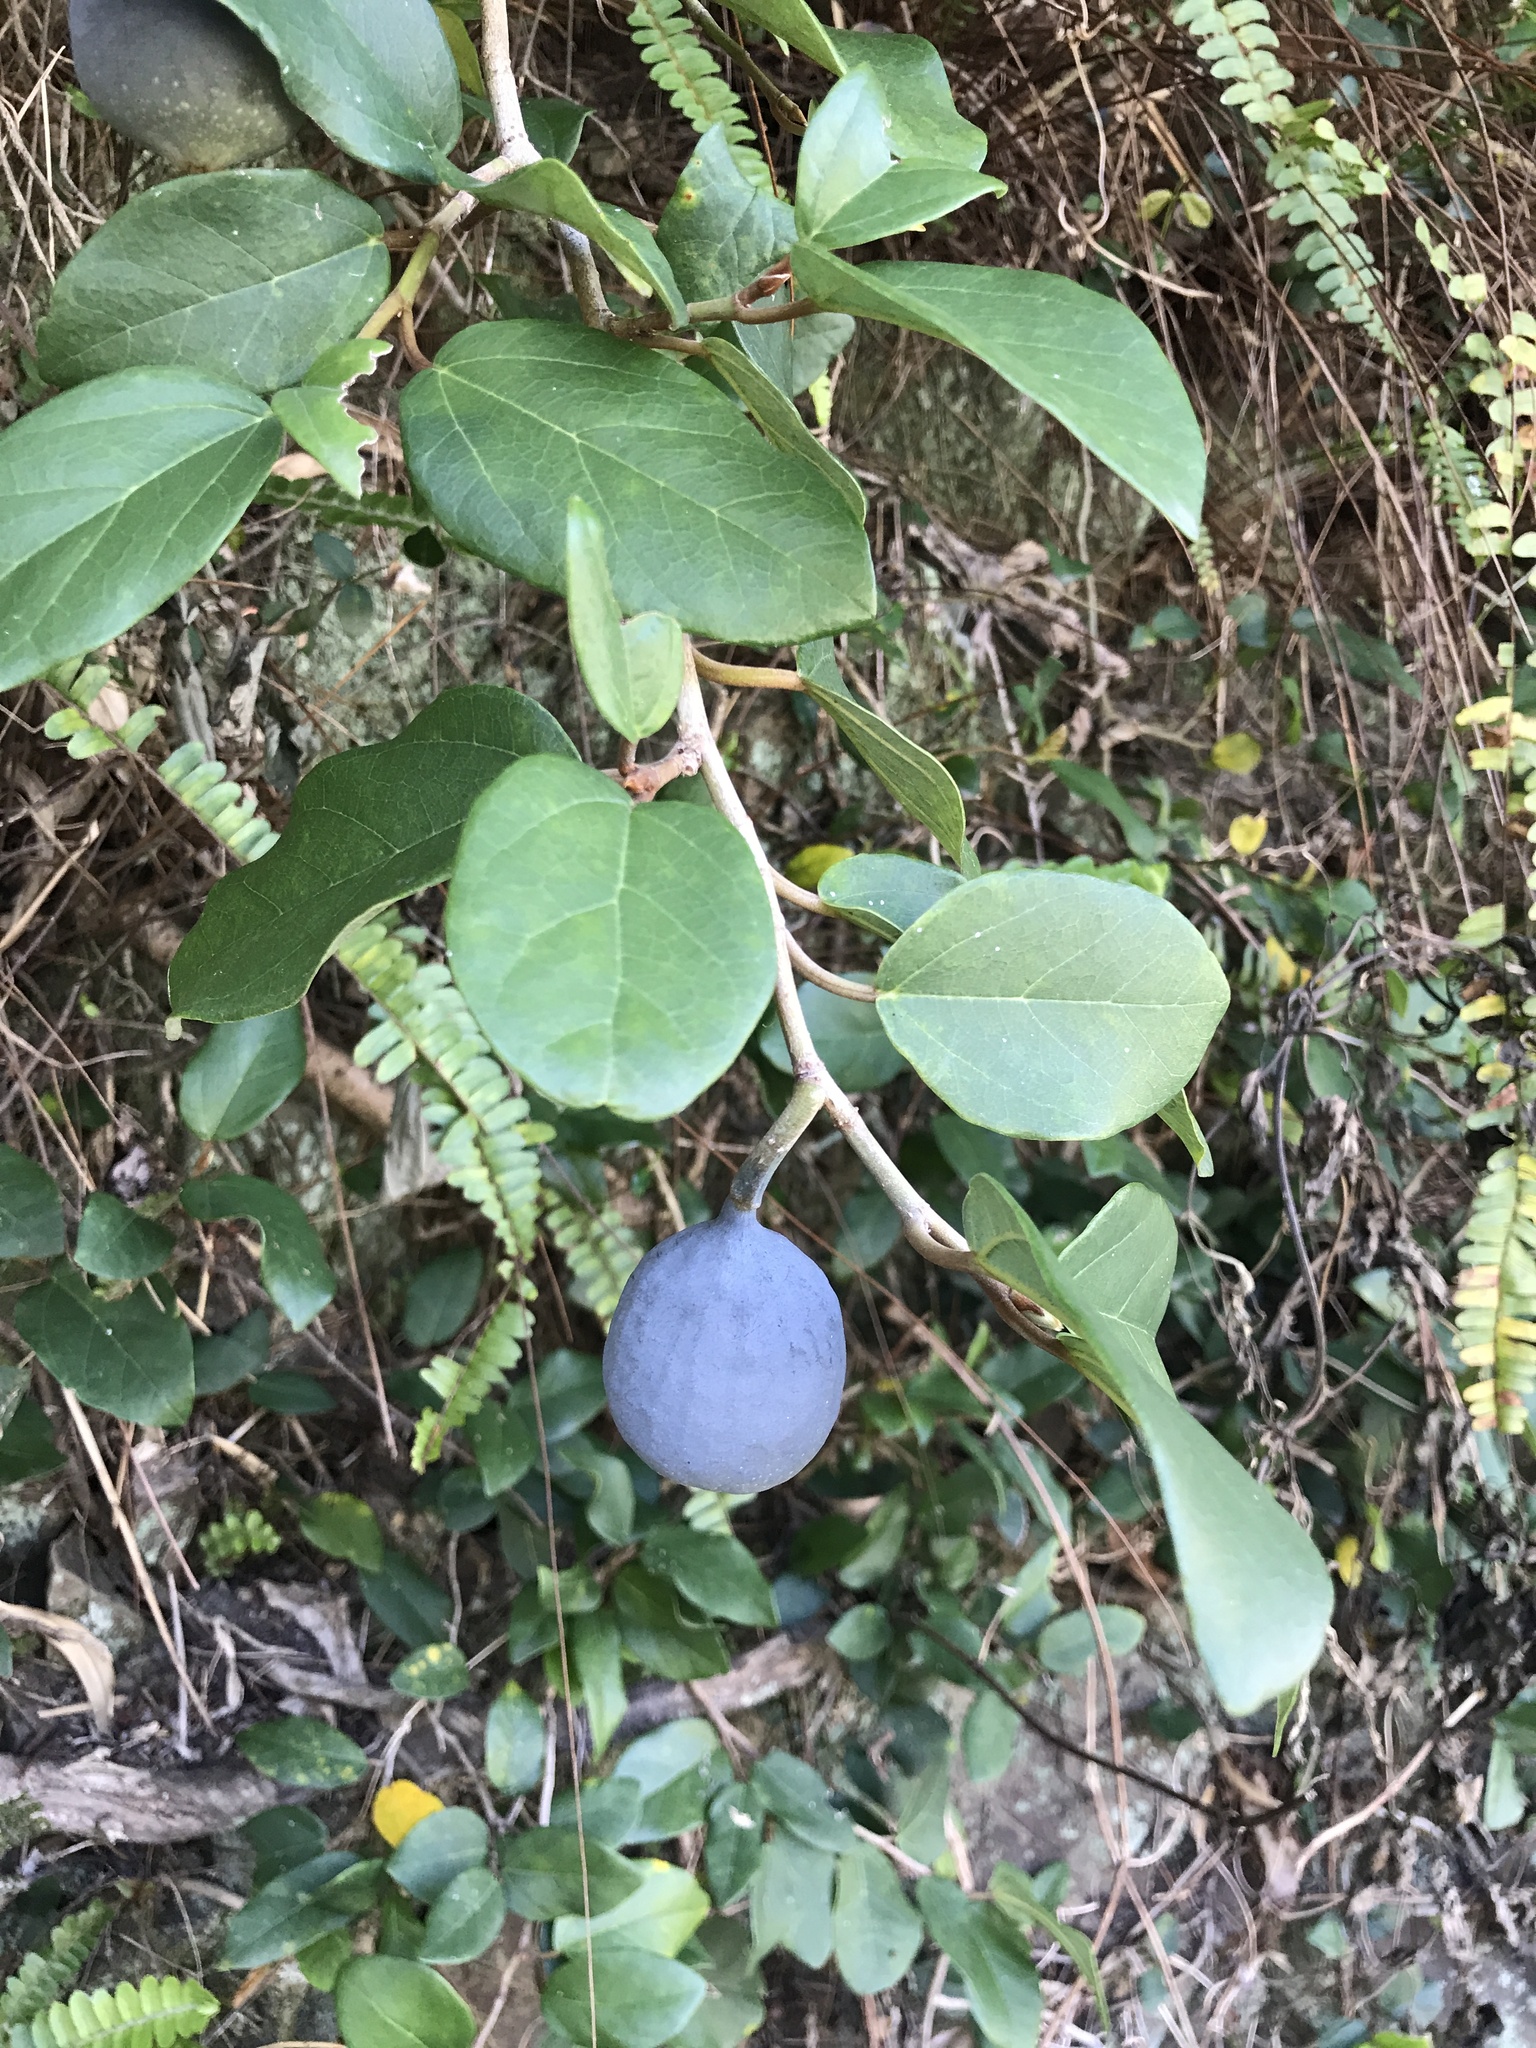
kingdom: Plantae
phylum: Tracheophyta
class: Magnoliopsida
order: Rosales
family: Moraceae
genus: Ficus
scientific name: Ficus pumila
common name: Climbingfig
